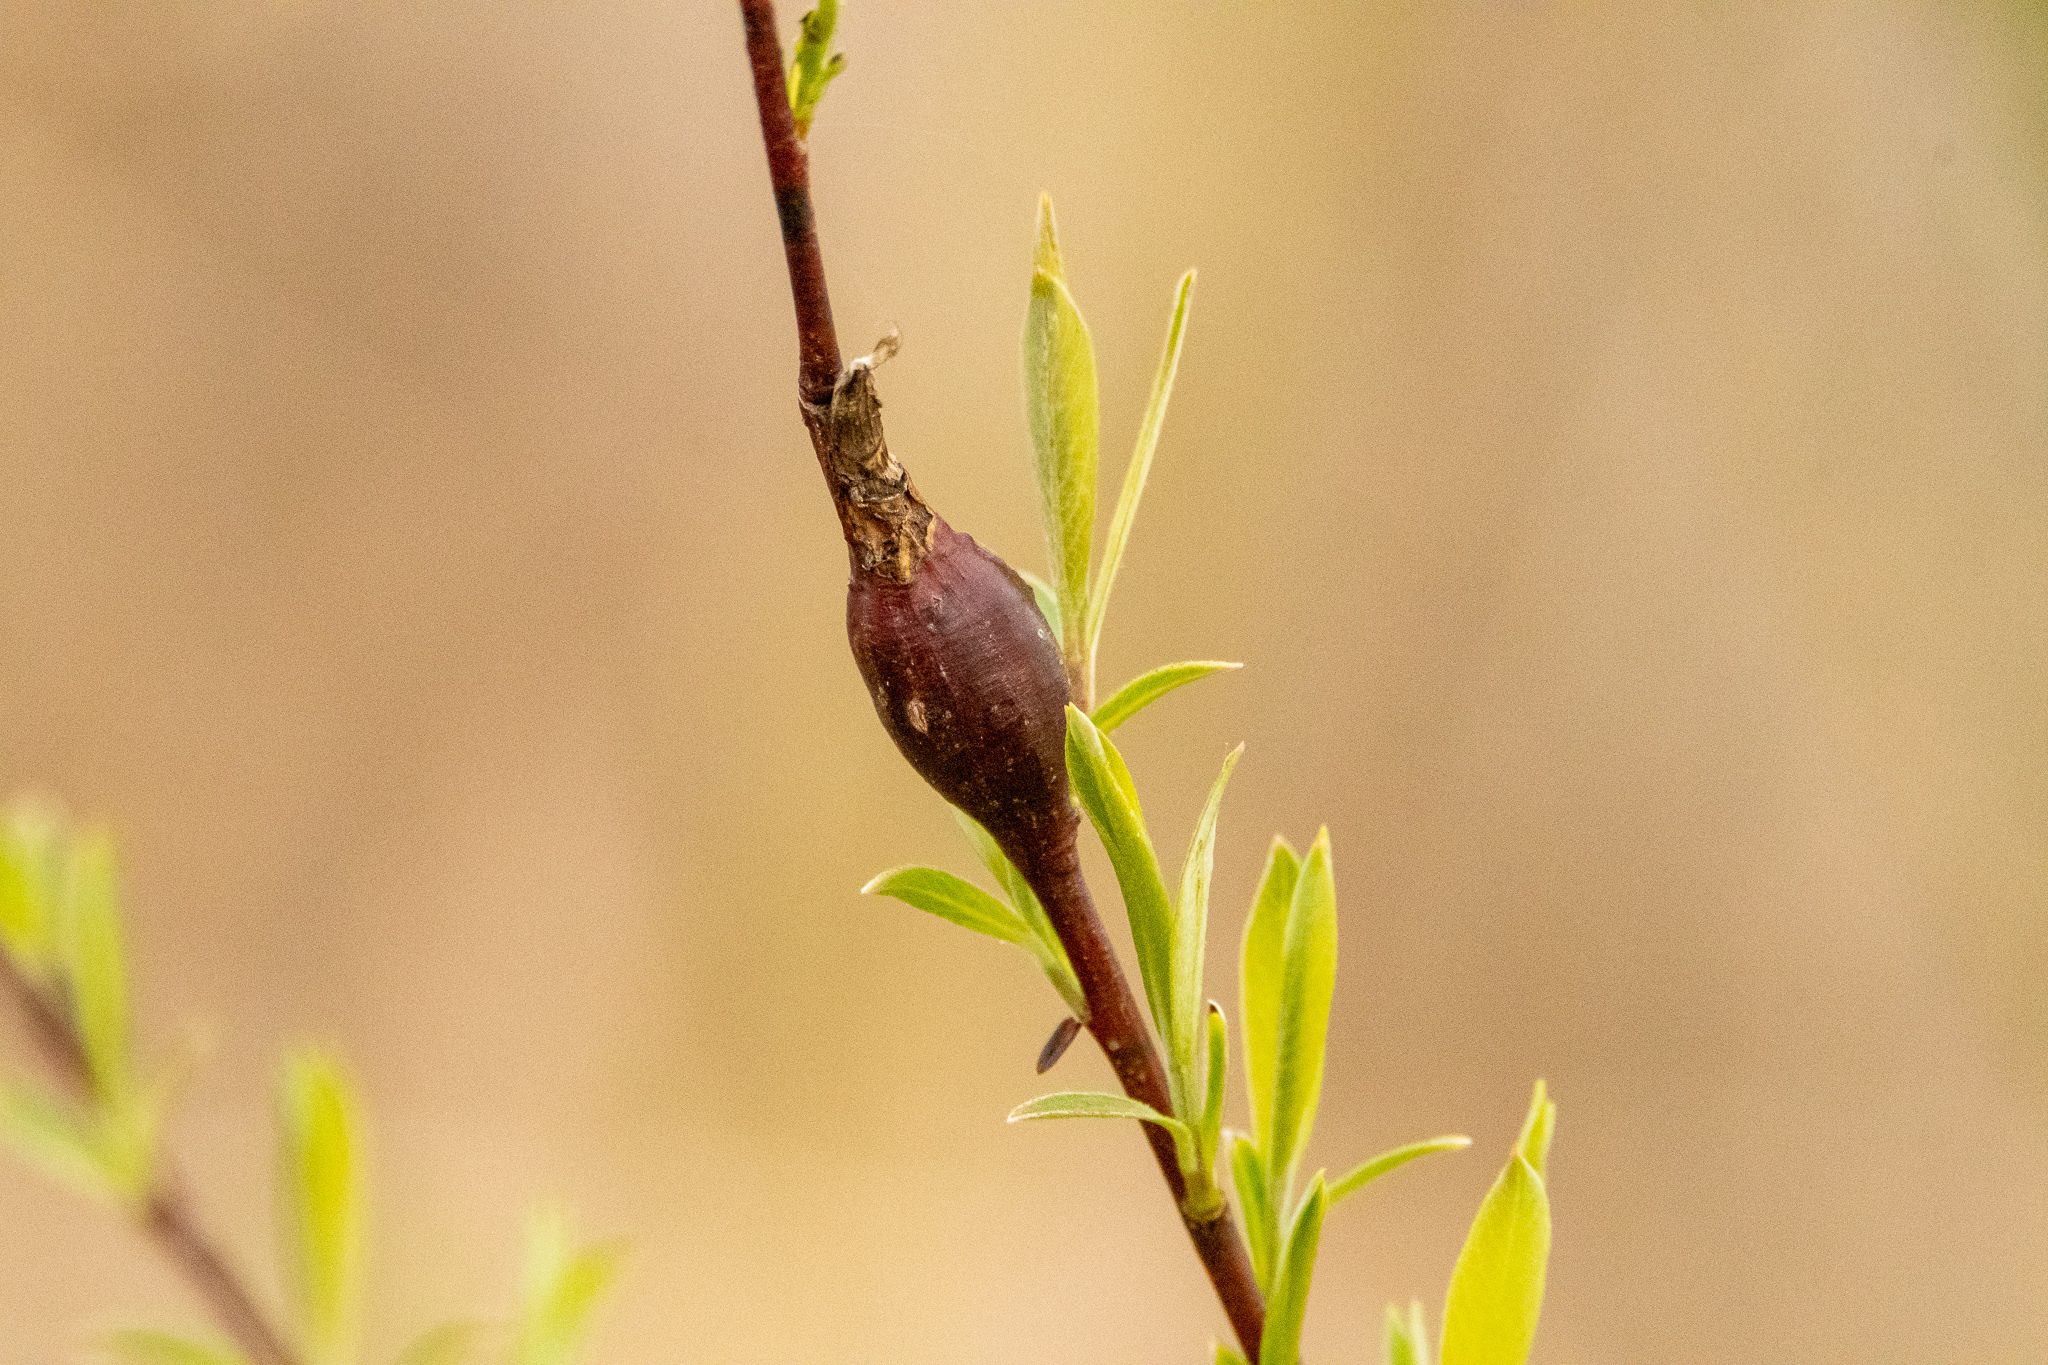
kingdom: Animalia
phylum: Arthropoda
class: Insecta
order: Diptera
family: Cecidomyiidae
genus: Thecodiplosis
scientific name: Thecodiplosis pinirigidae
